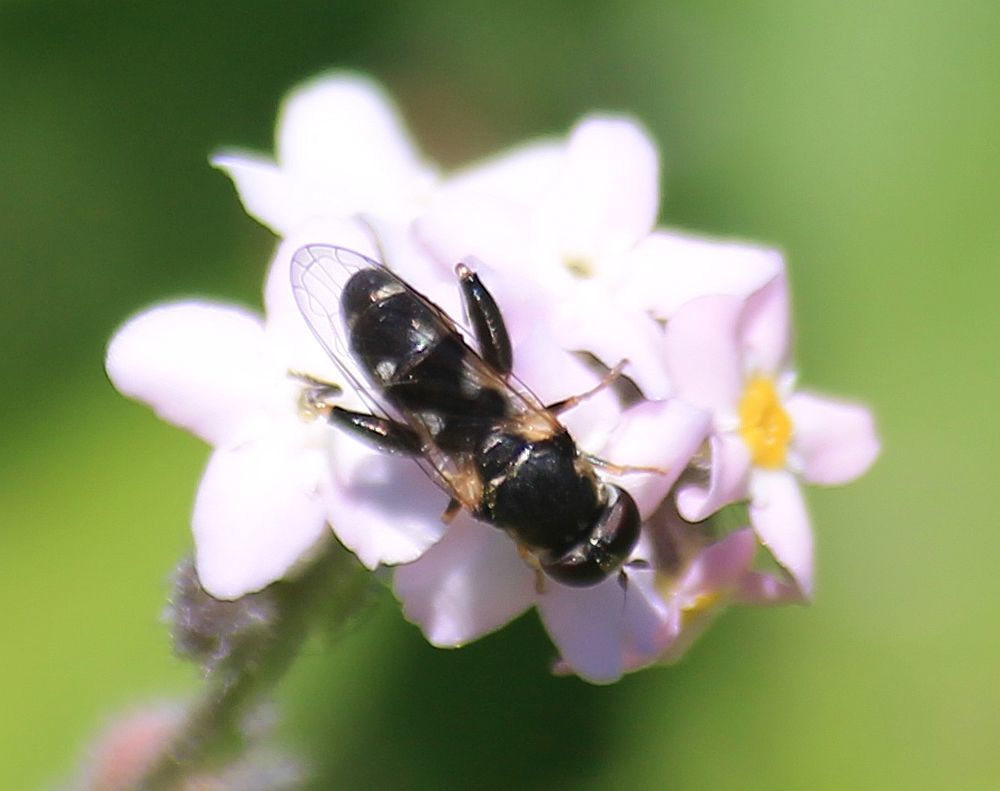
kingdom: Animalia
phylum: Arthropoda
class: Insecta
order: Diptera
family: Syrphidae
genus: Syritta
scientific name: Syritta pipiens
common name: Hover fly
